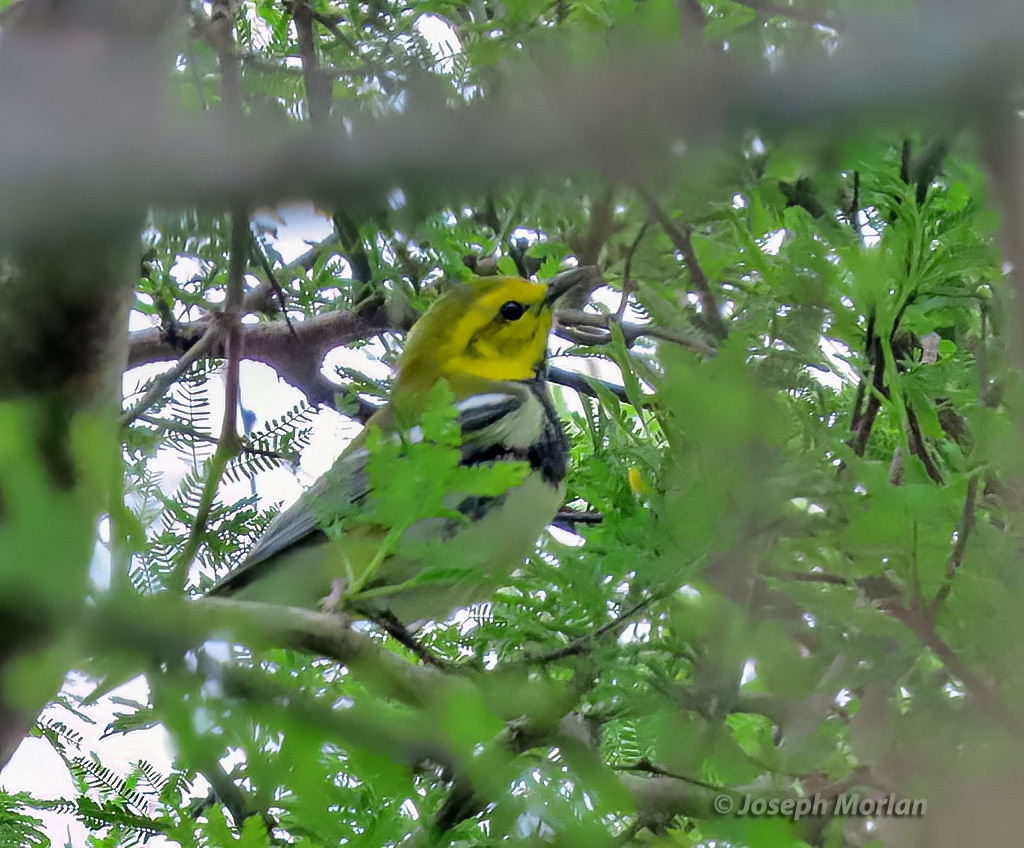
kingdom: Animalia
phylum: Chordata
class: Aves
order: Passeriformes
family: Parulidae
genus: Setophaga
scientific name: Setophaga virens
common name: Black-throated green warbler
